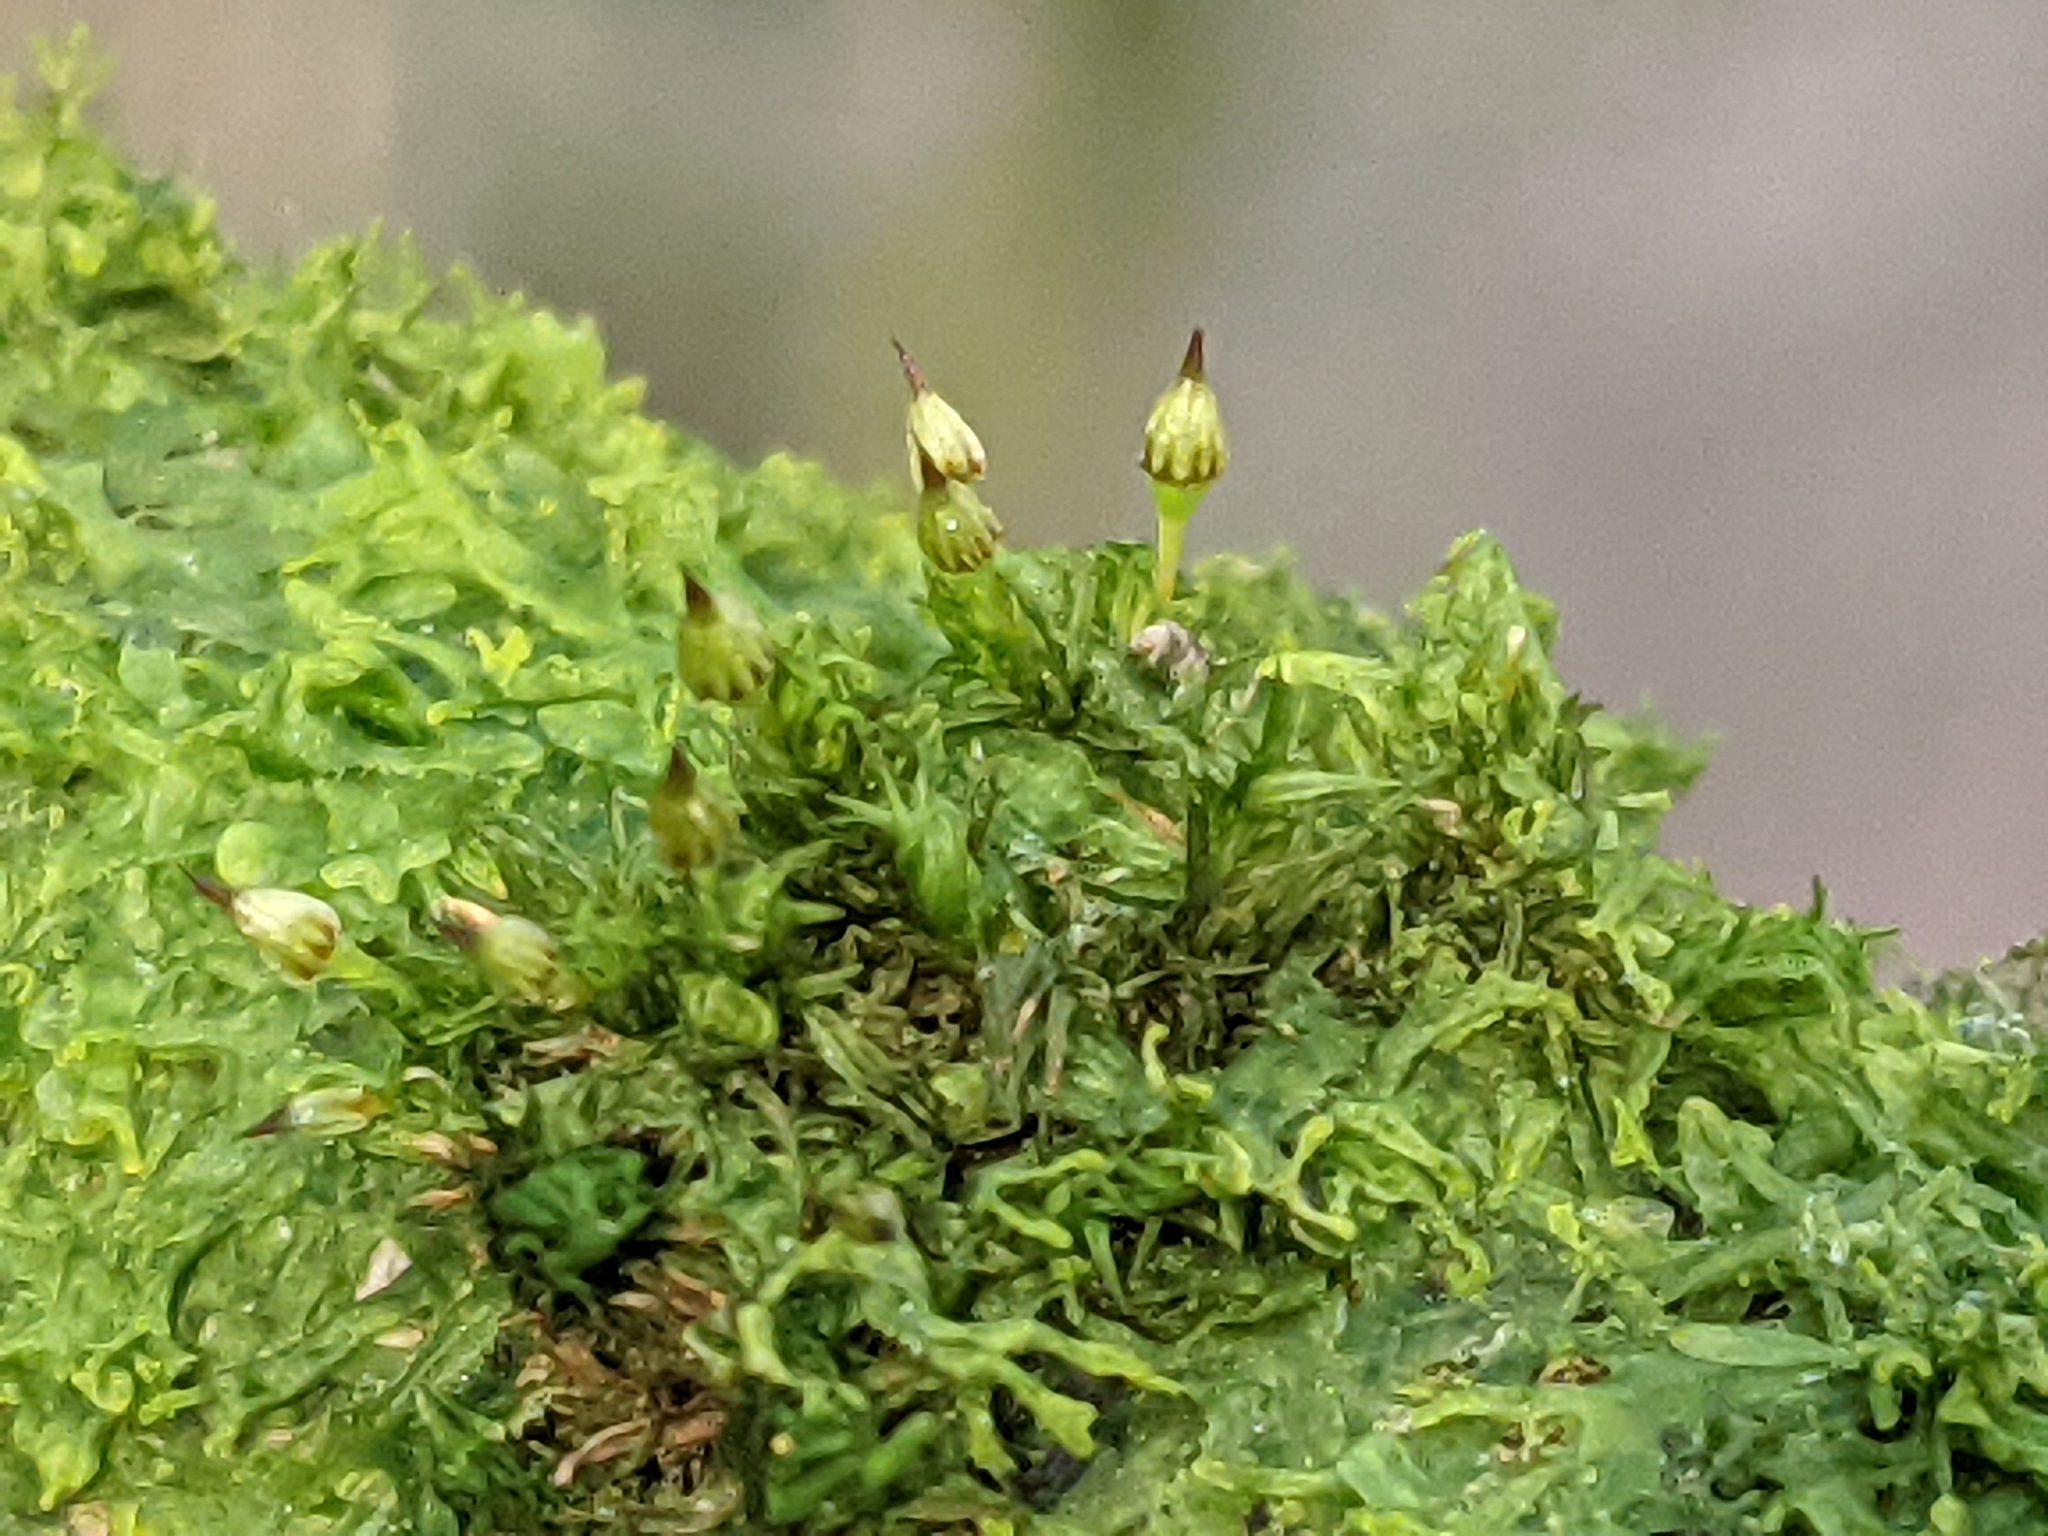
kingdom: Plantae
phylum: Bryophyta
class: Bryopsida
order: Orthotrichales
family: Orthotrichaceae
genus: Orthotrichum
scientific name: Orthotrichum pulchellum
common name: Elegant bristle-moss
